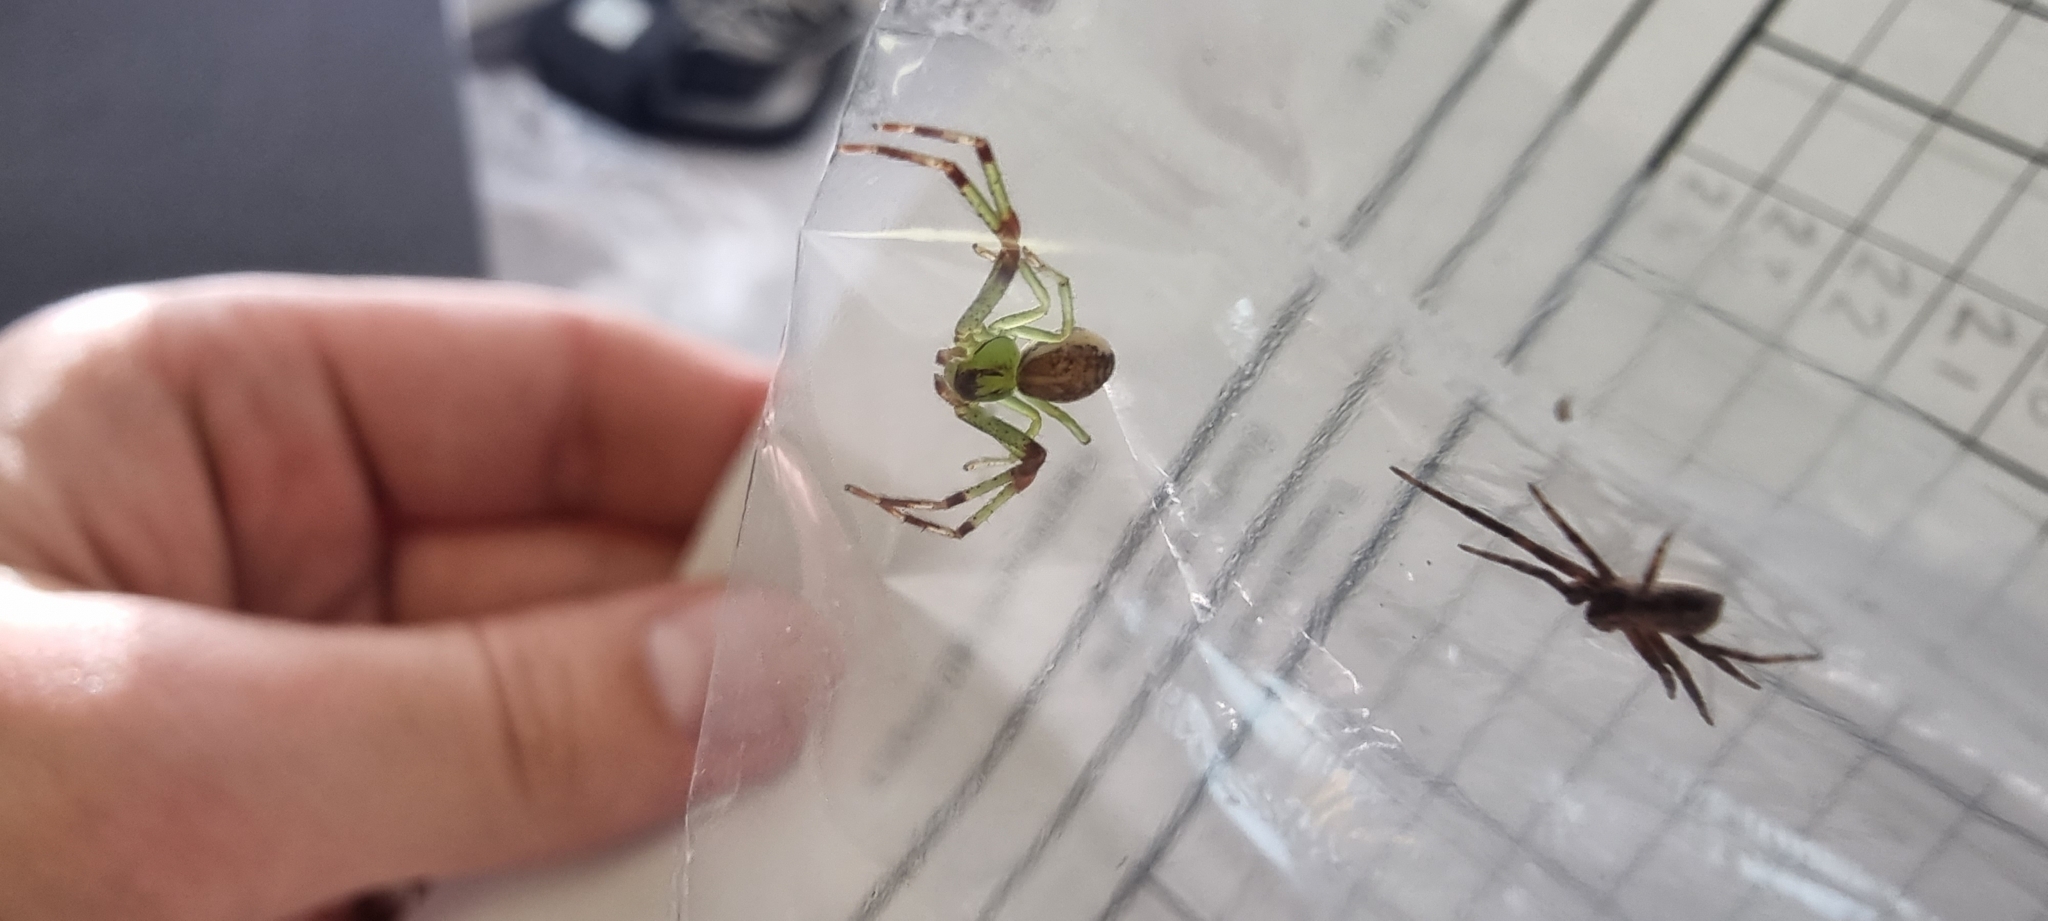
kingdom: Animalia
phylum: Arthropoda
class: Arachnida
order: Araneae
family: Thomisidae
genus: Diaea
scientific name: Diaea dorsata
